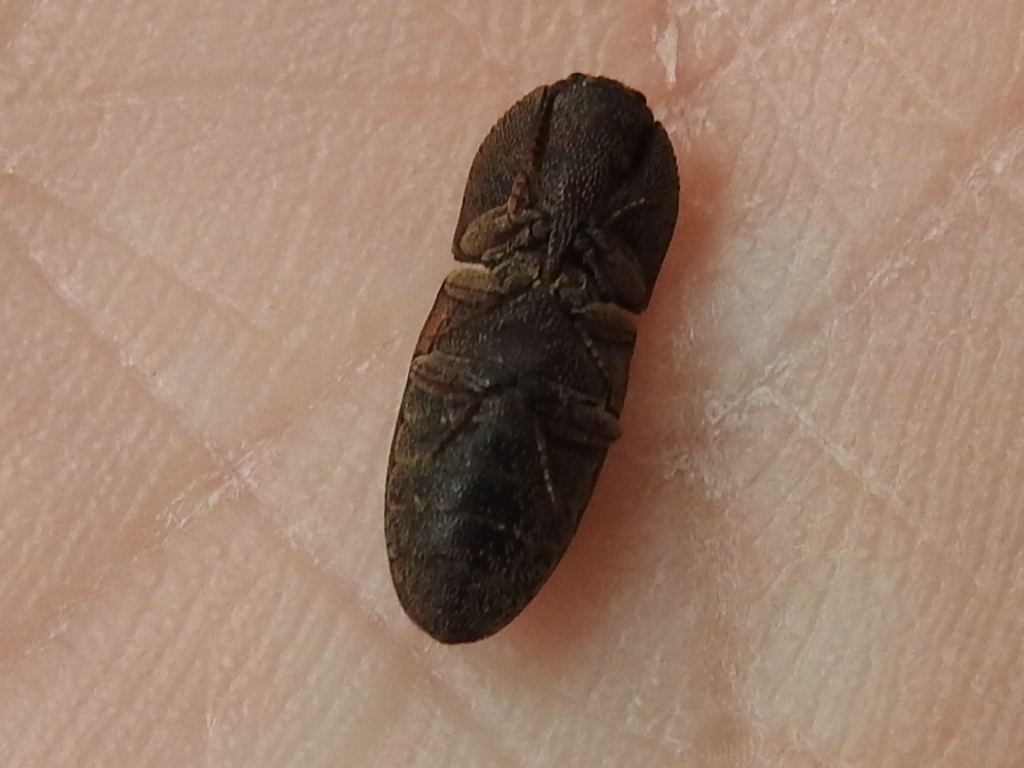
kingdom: Animalia
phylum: Arthropoda
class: Insecta
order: Coleoptera
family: Elateridae
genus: Agrypnus
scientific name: Agrypnus rectangularis
